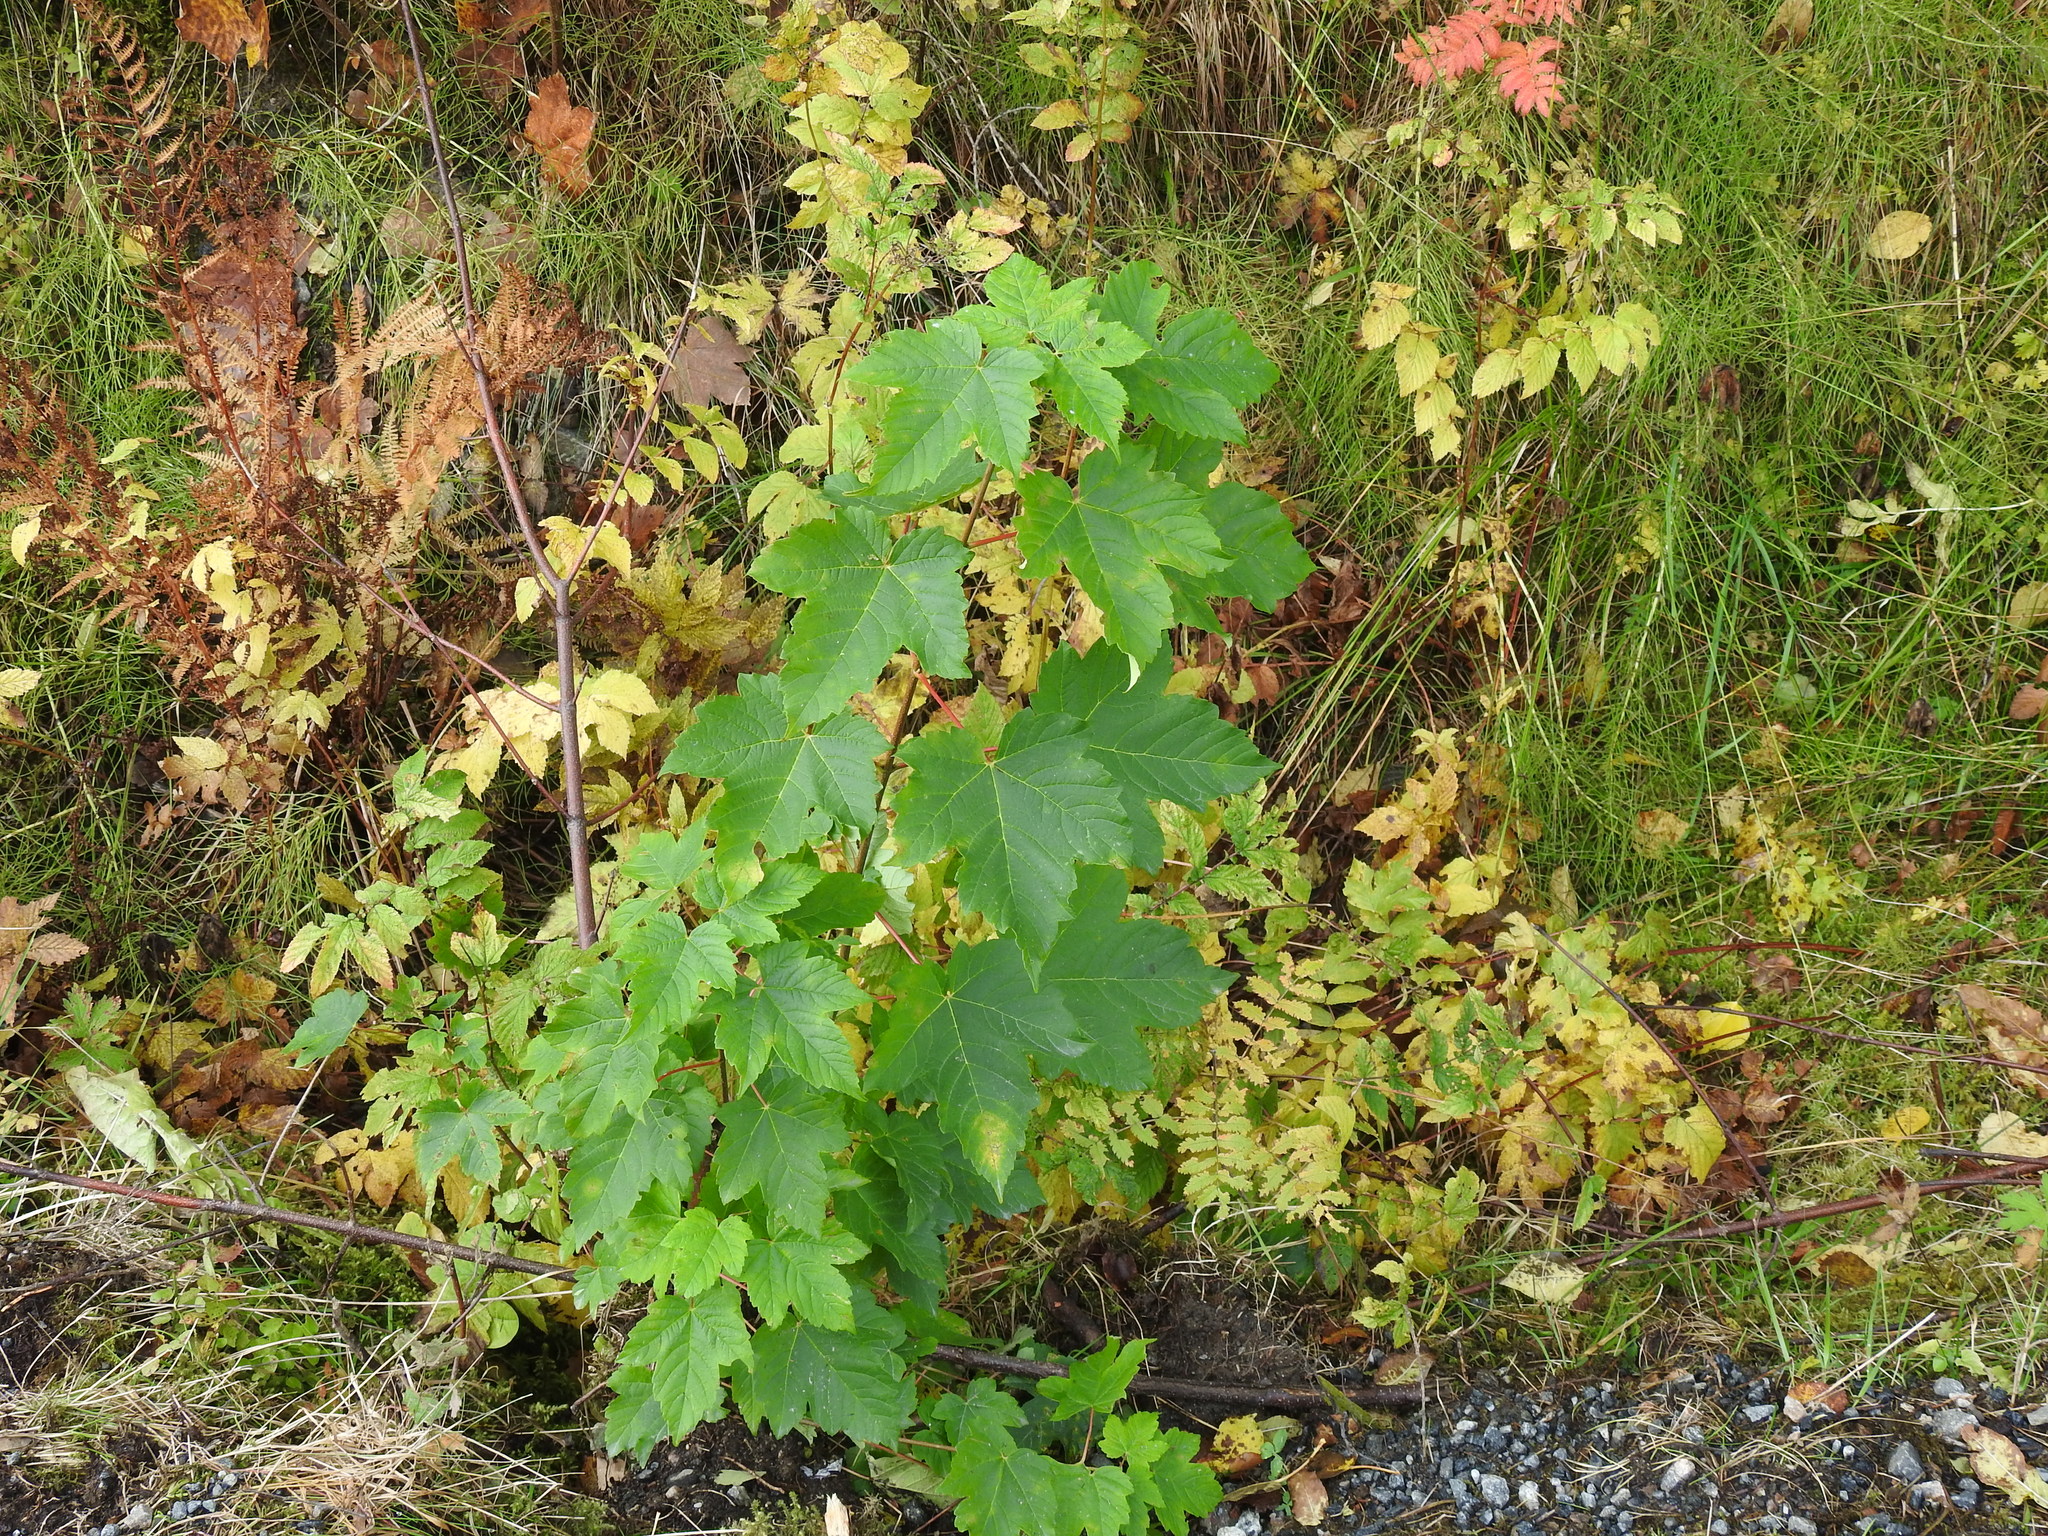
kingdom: Plantae
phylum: Tracheophyta
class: Magnoliopsida
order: Sapindales
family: Sapindaceae
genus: Acer
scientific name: Acer pseudoplatanus
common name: Sycamore
